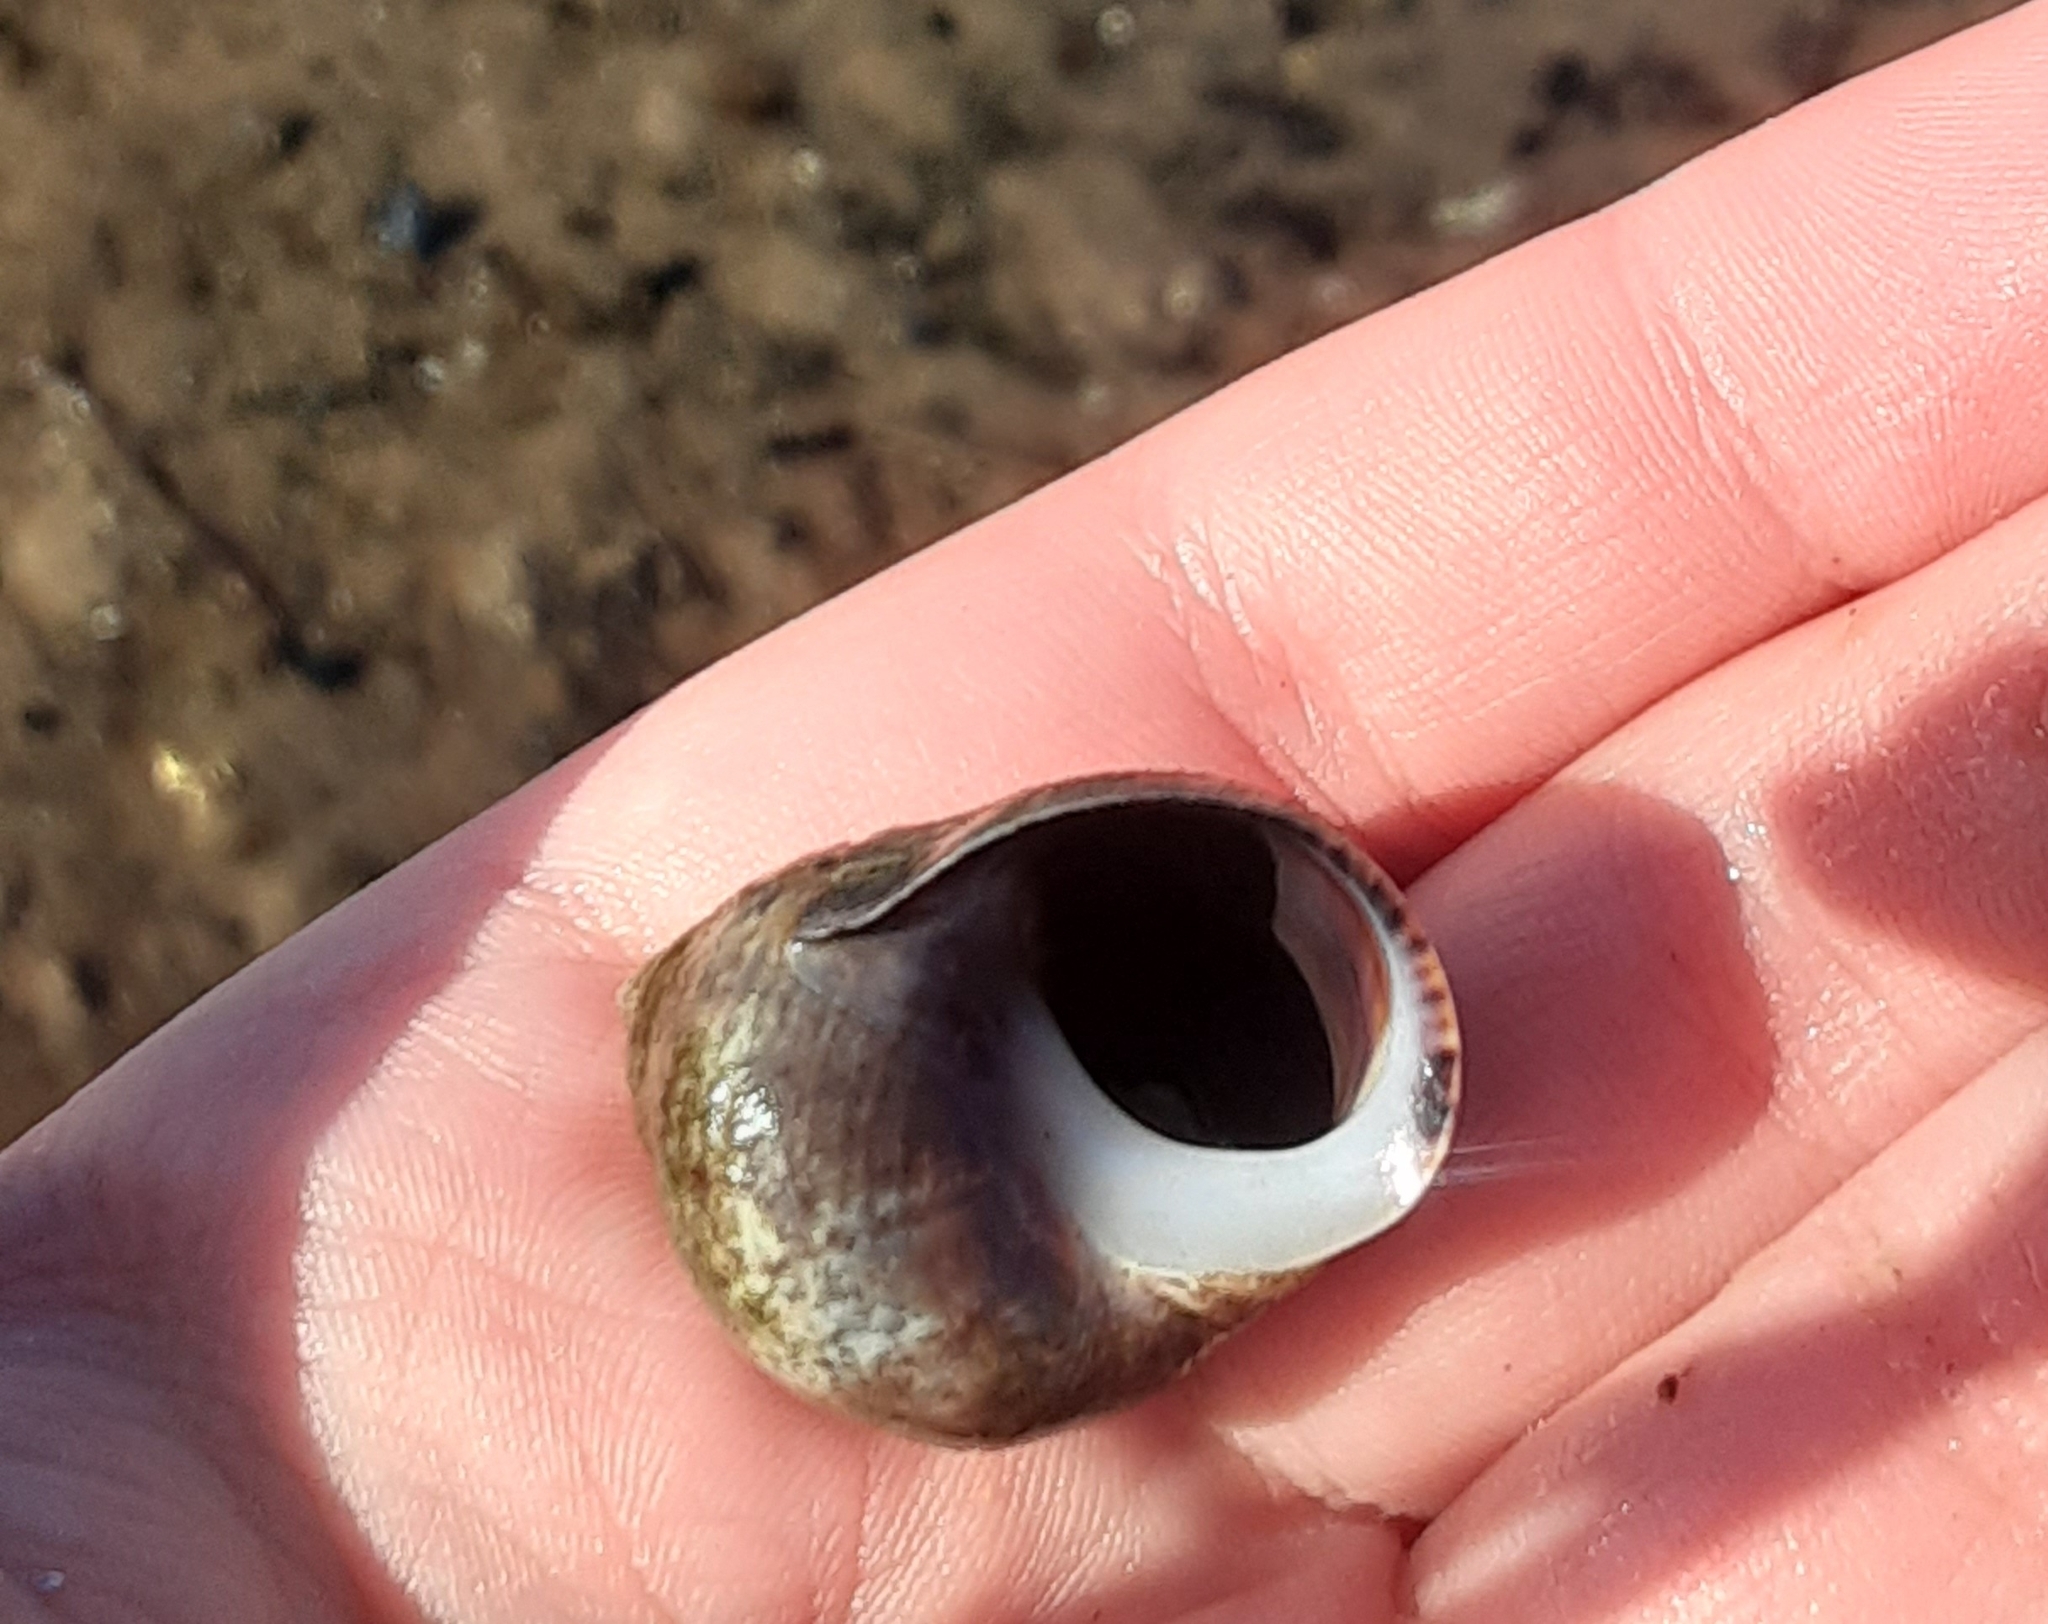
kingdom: Animalia
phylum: Mollusca
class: Gastropoda
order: Littorinimorpha
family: Littorinidae
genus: Littorina
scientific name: Littorina littorea
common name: Common periwinkle
